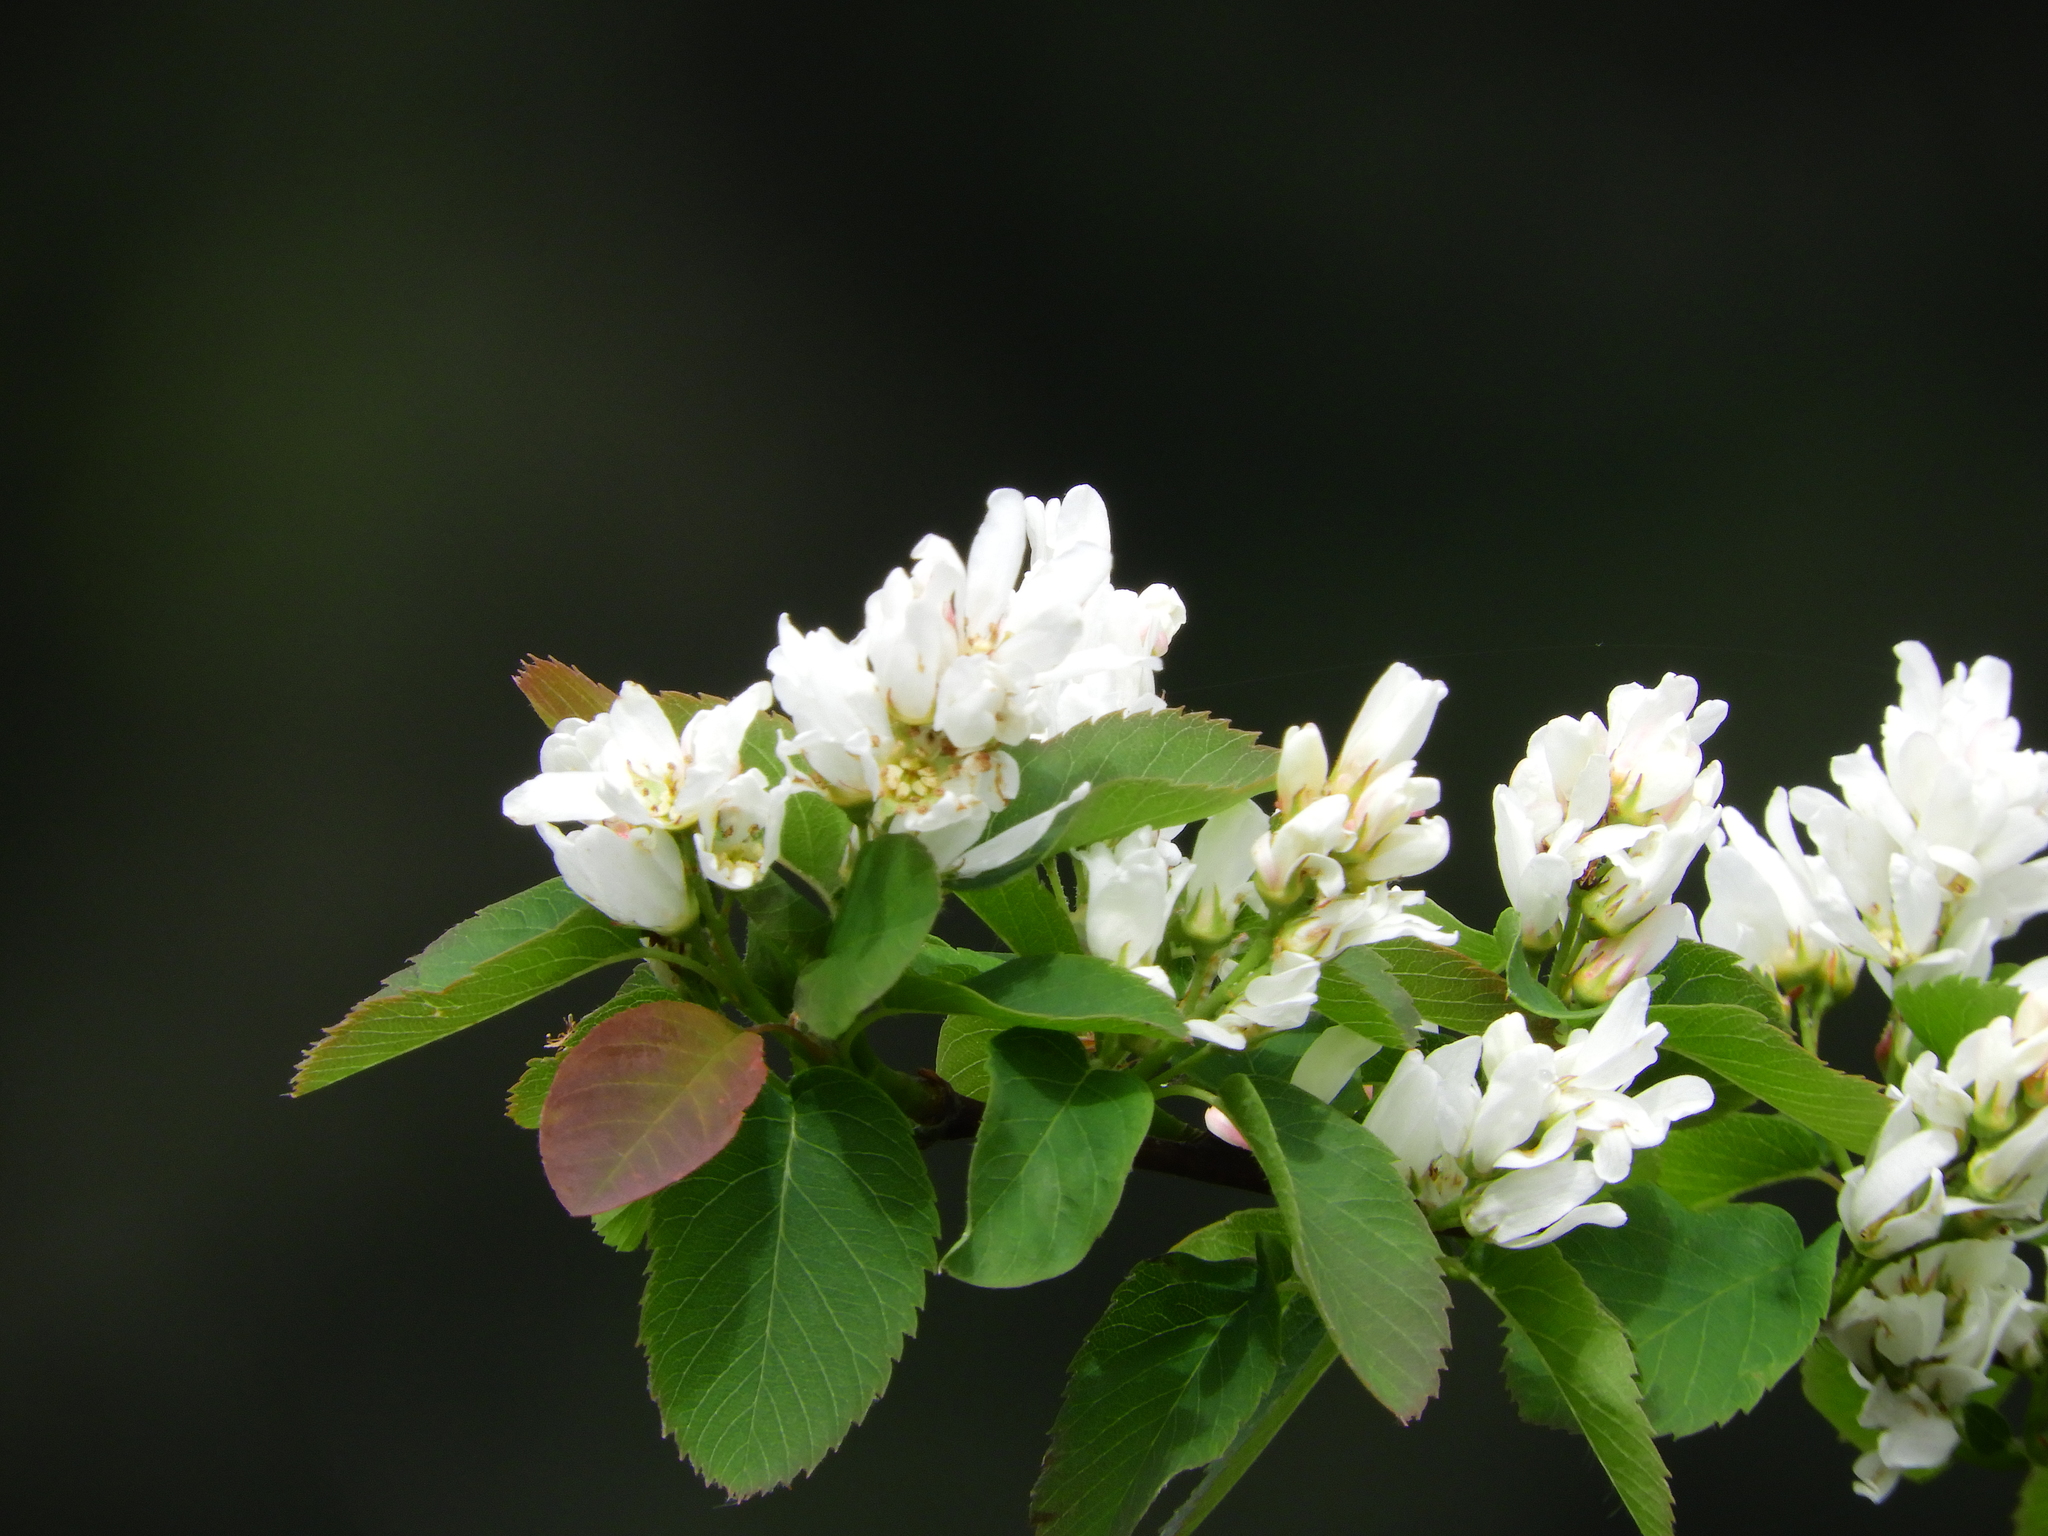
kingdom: Plantae
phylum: Tracheophyta
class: Magnoliopsida
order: Rosales
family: Rosaceae
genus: Amelanchier
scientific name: Amelanchier alnifolia
